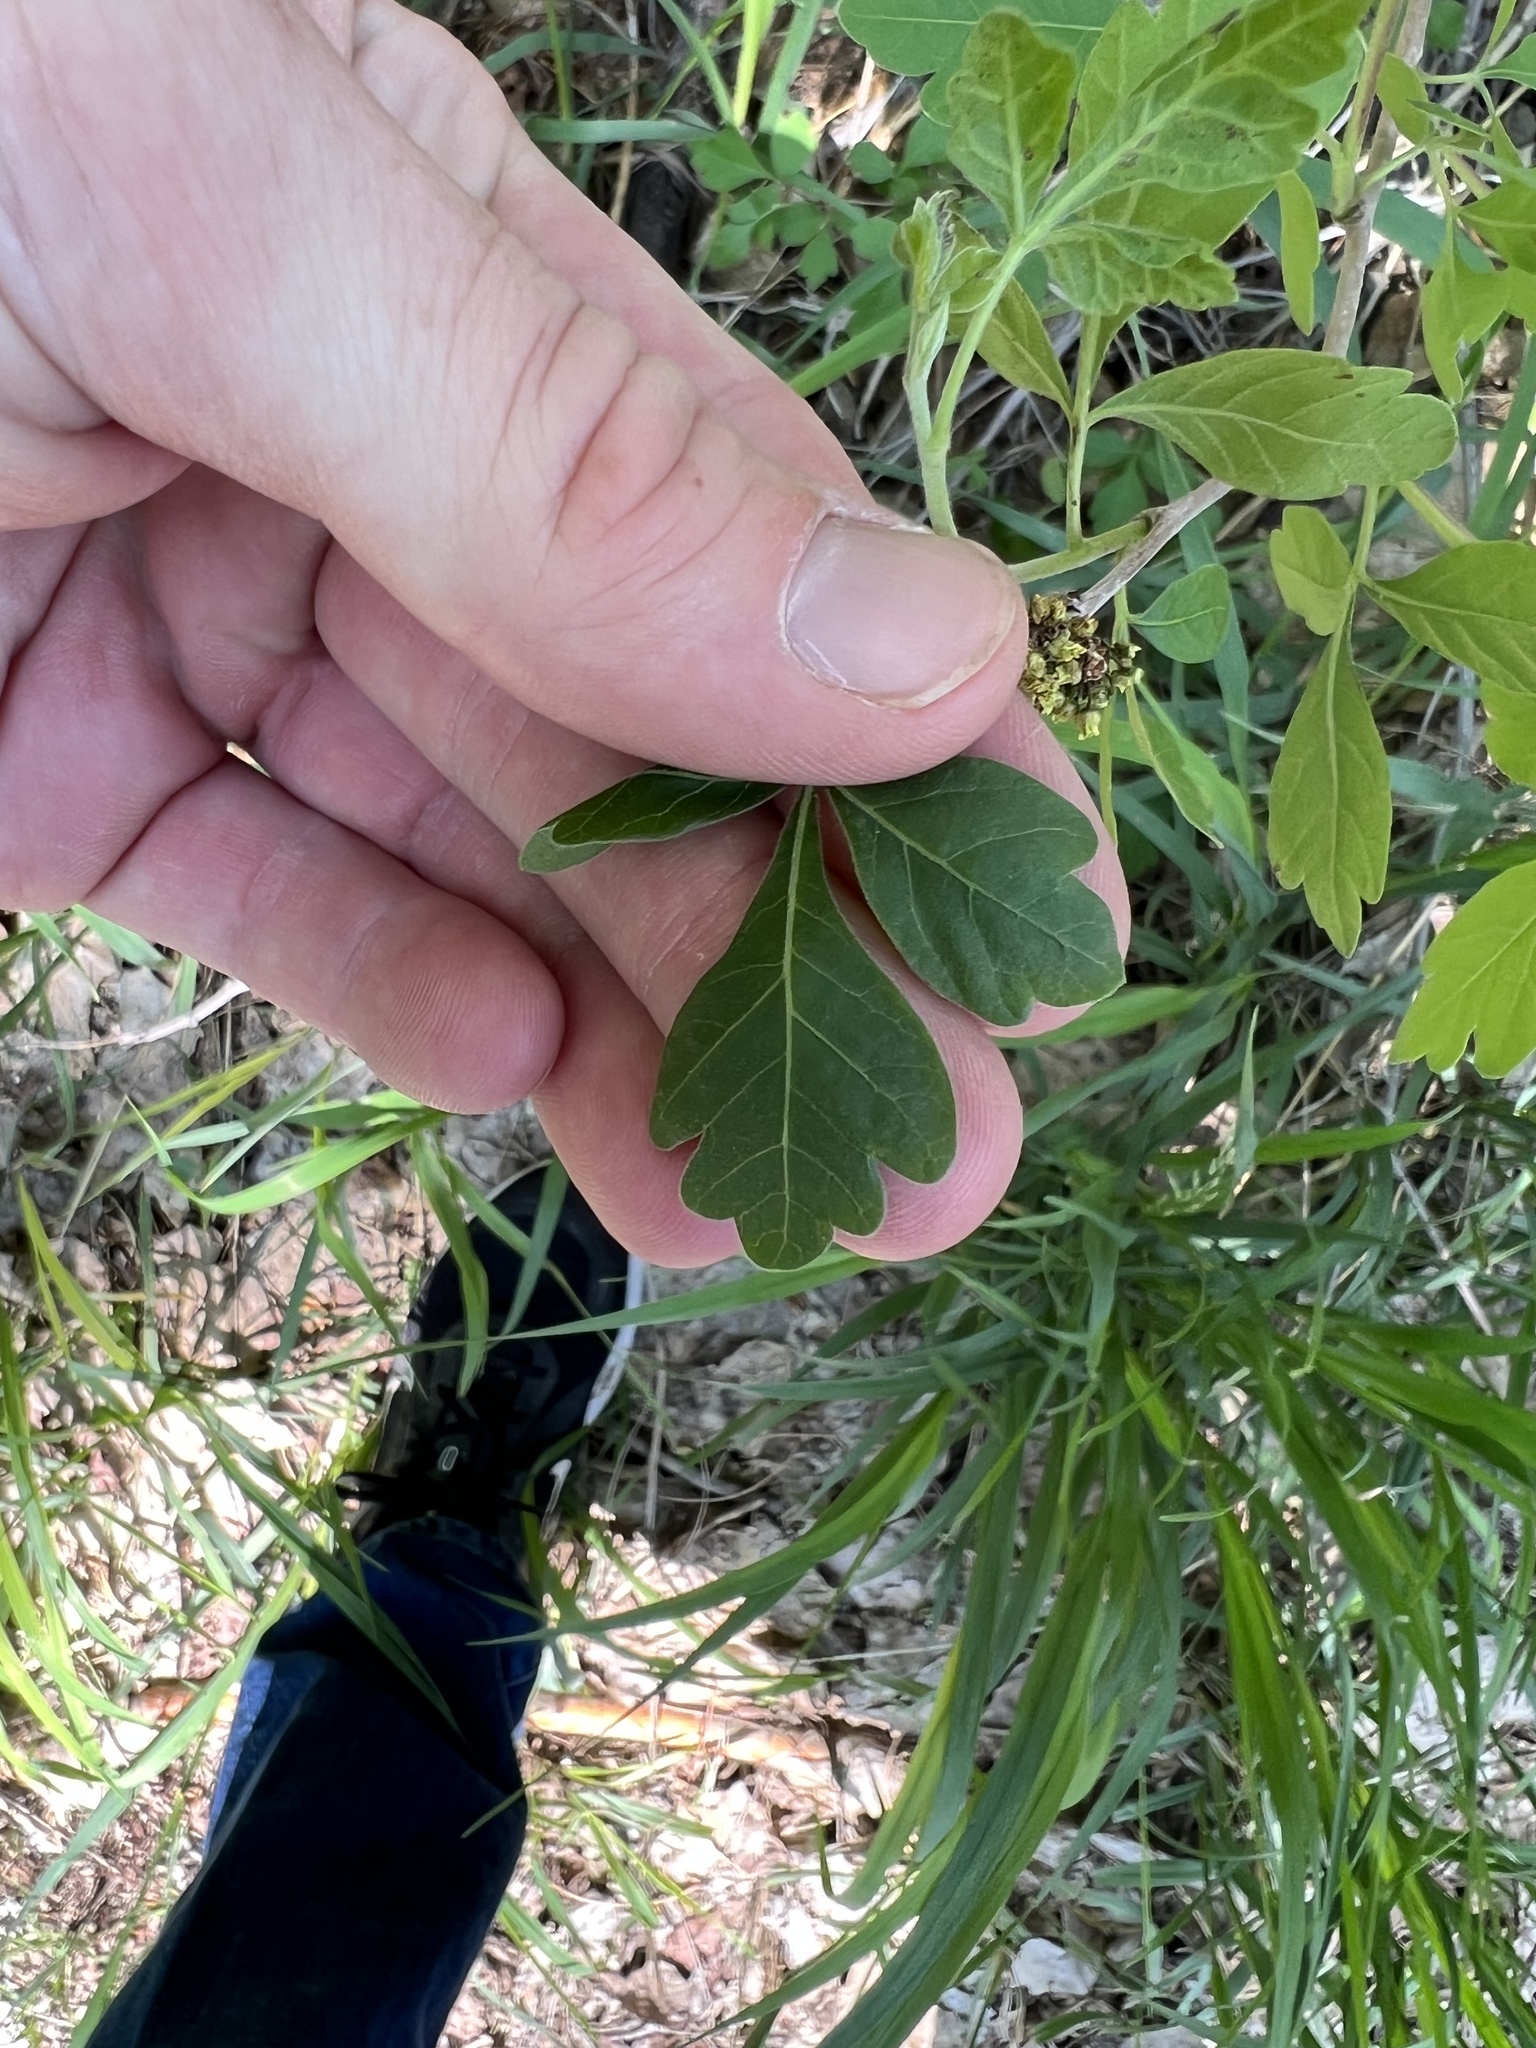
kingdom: Plantae
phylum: Tracheophyta
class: Magnoliopsida
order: Sapindales
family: Anacardiaceae
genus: Rhus
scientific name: Rhus trilobata
